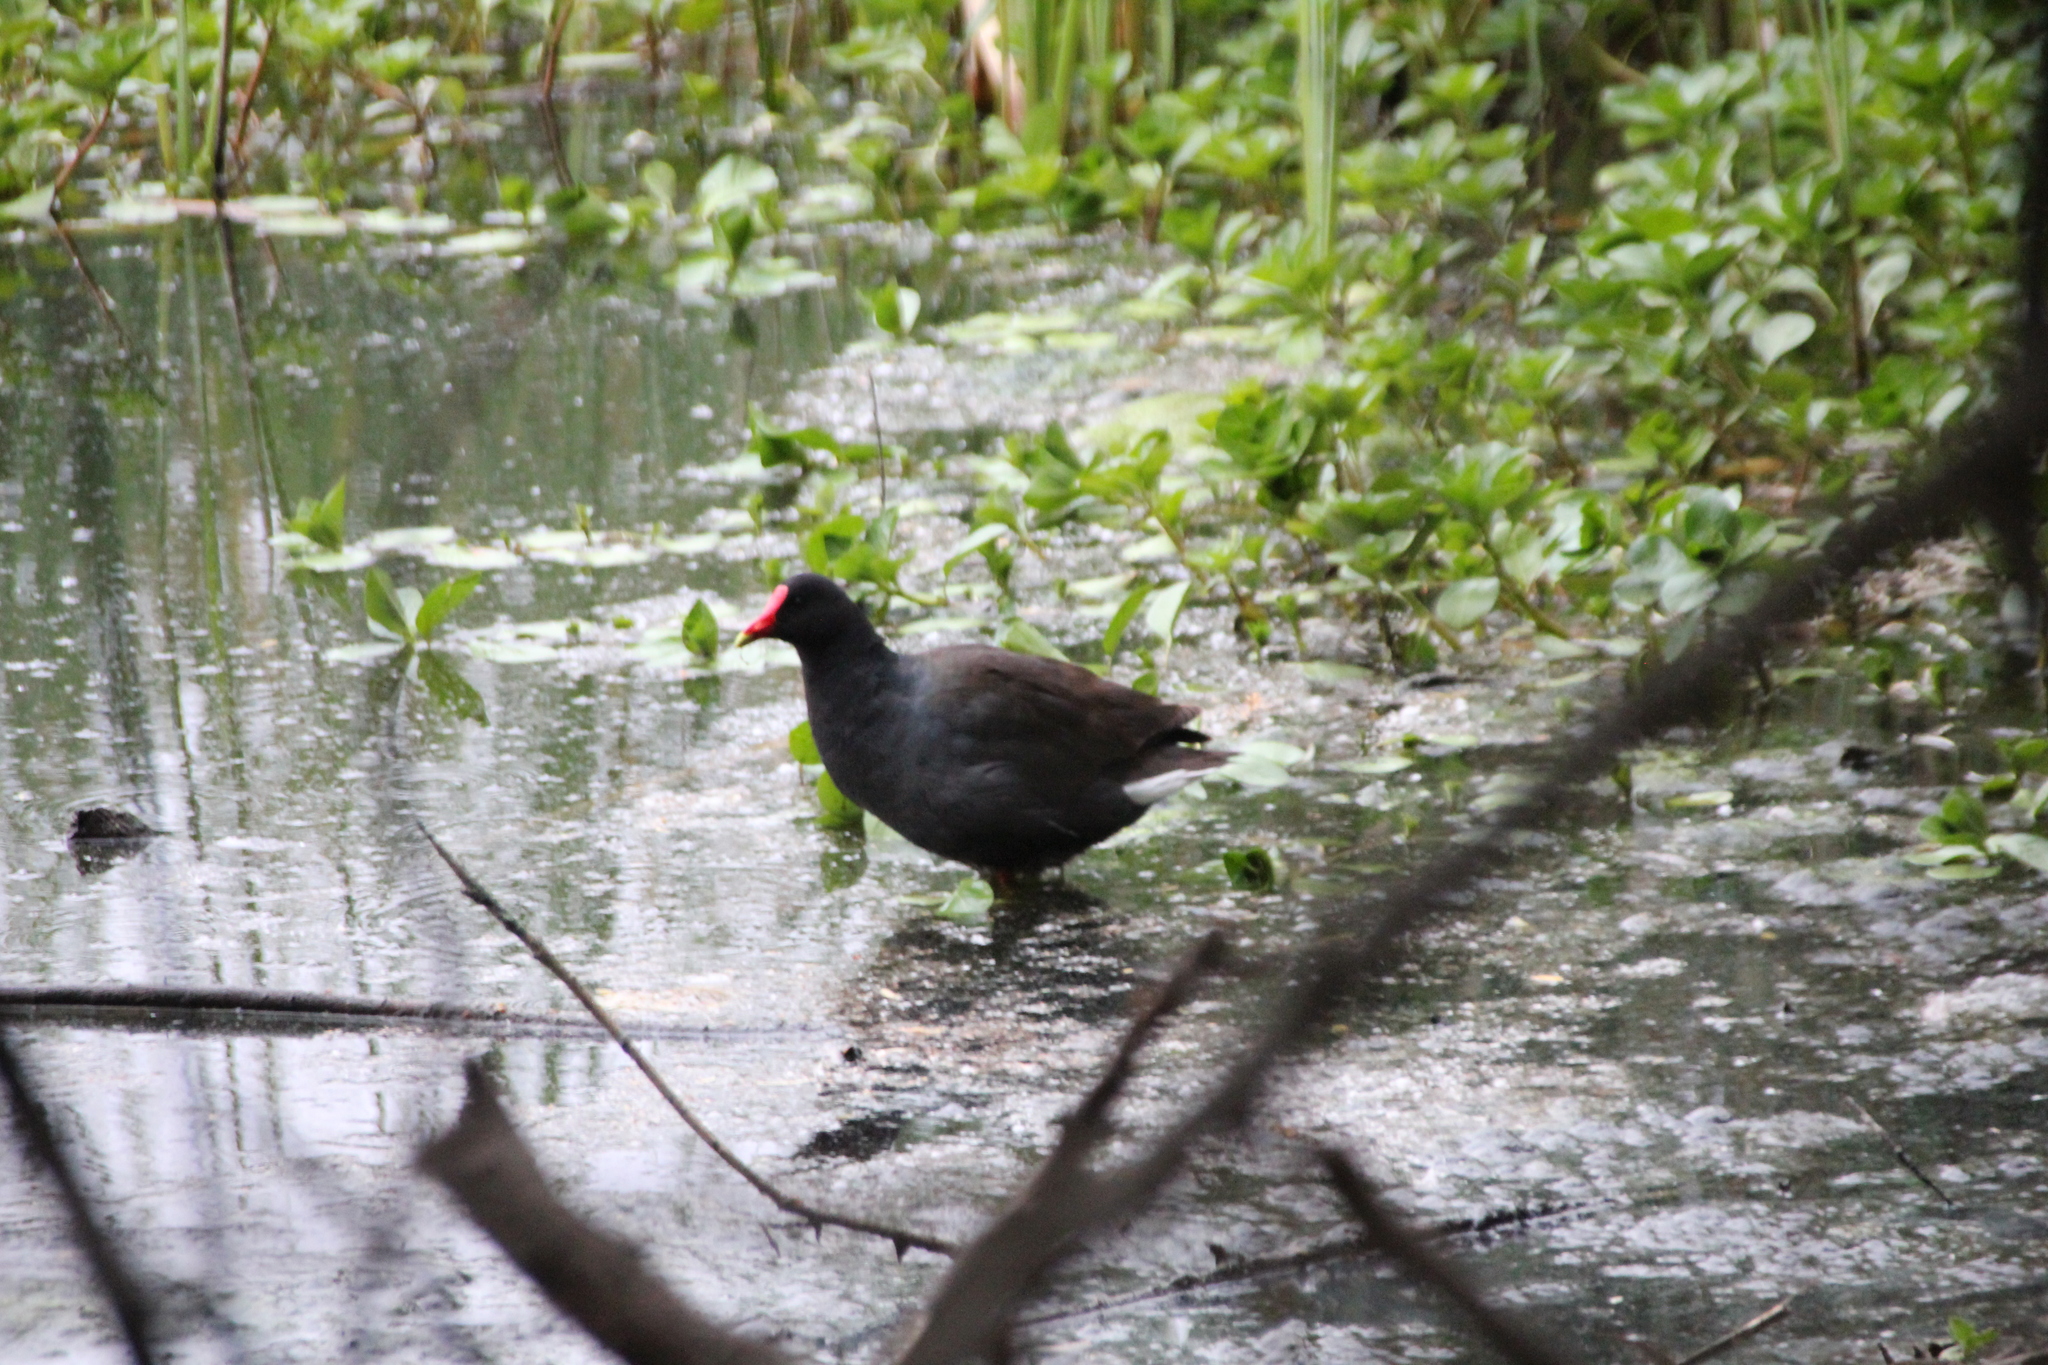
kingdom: Animalia
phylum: Chordata
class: Aves
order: Gruiformes
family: Rallidae
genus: Gallinula
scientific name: Gallinula chloropus
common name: Common moorhen
